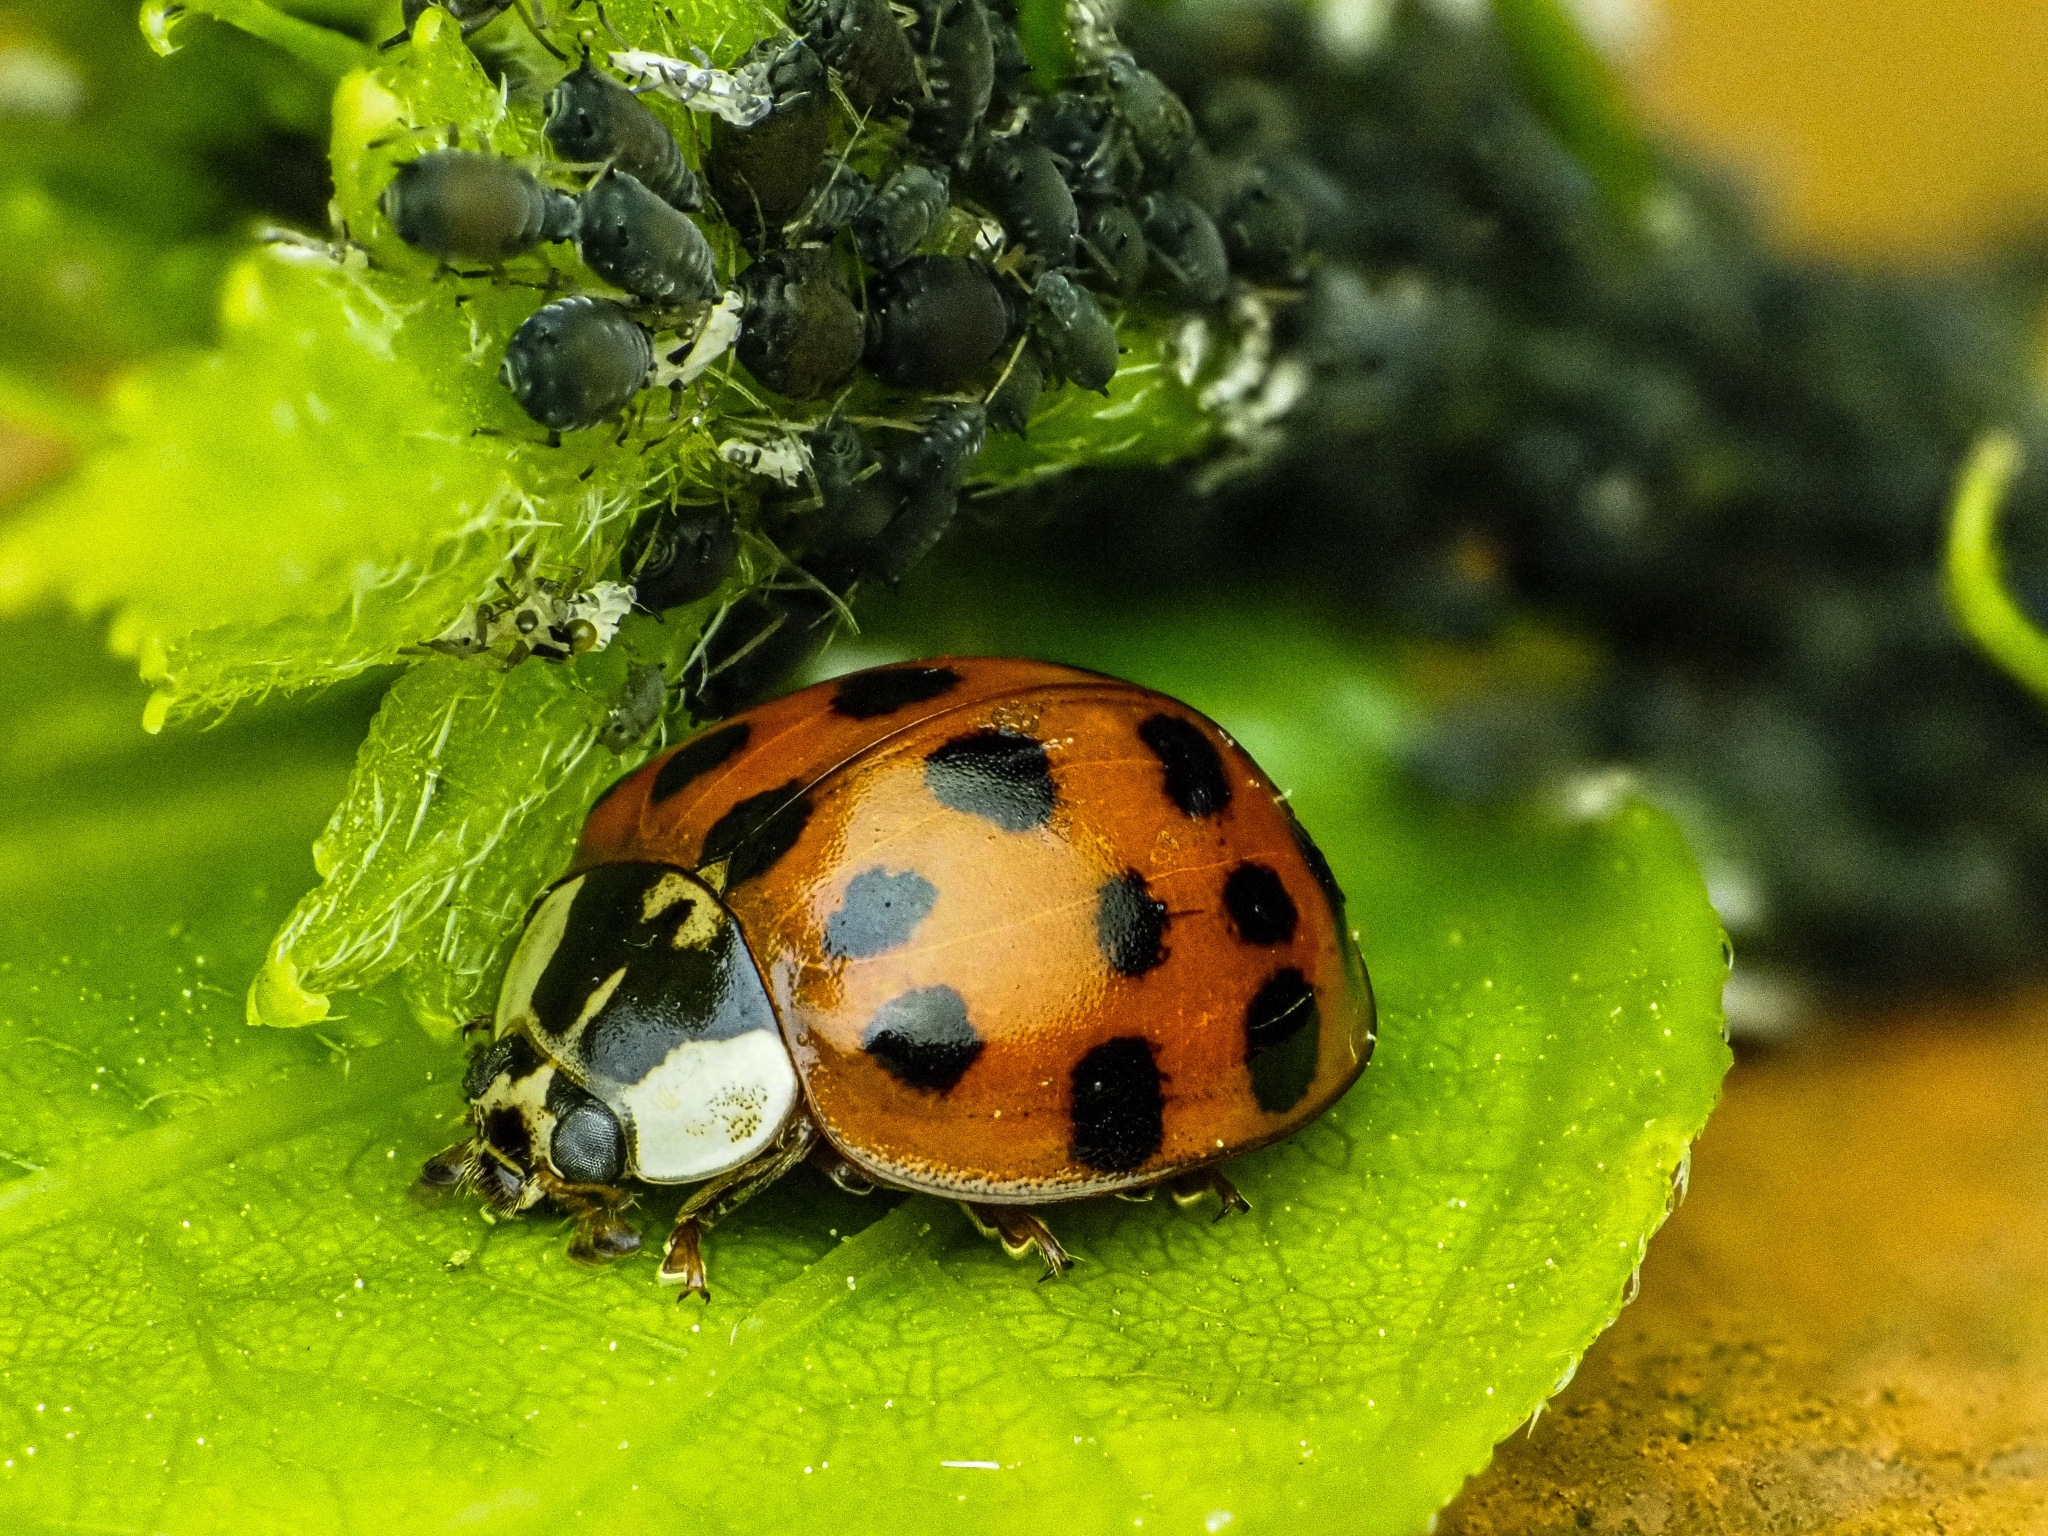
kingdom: Animalia
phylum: Arthropoda
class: Insecta
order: Coleoptera
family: Coccinellidae
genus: Harmonia
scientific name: Harmonia axyridis
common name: Harlequin ladybird
